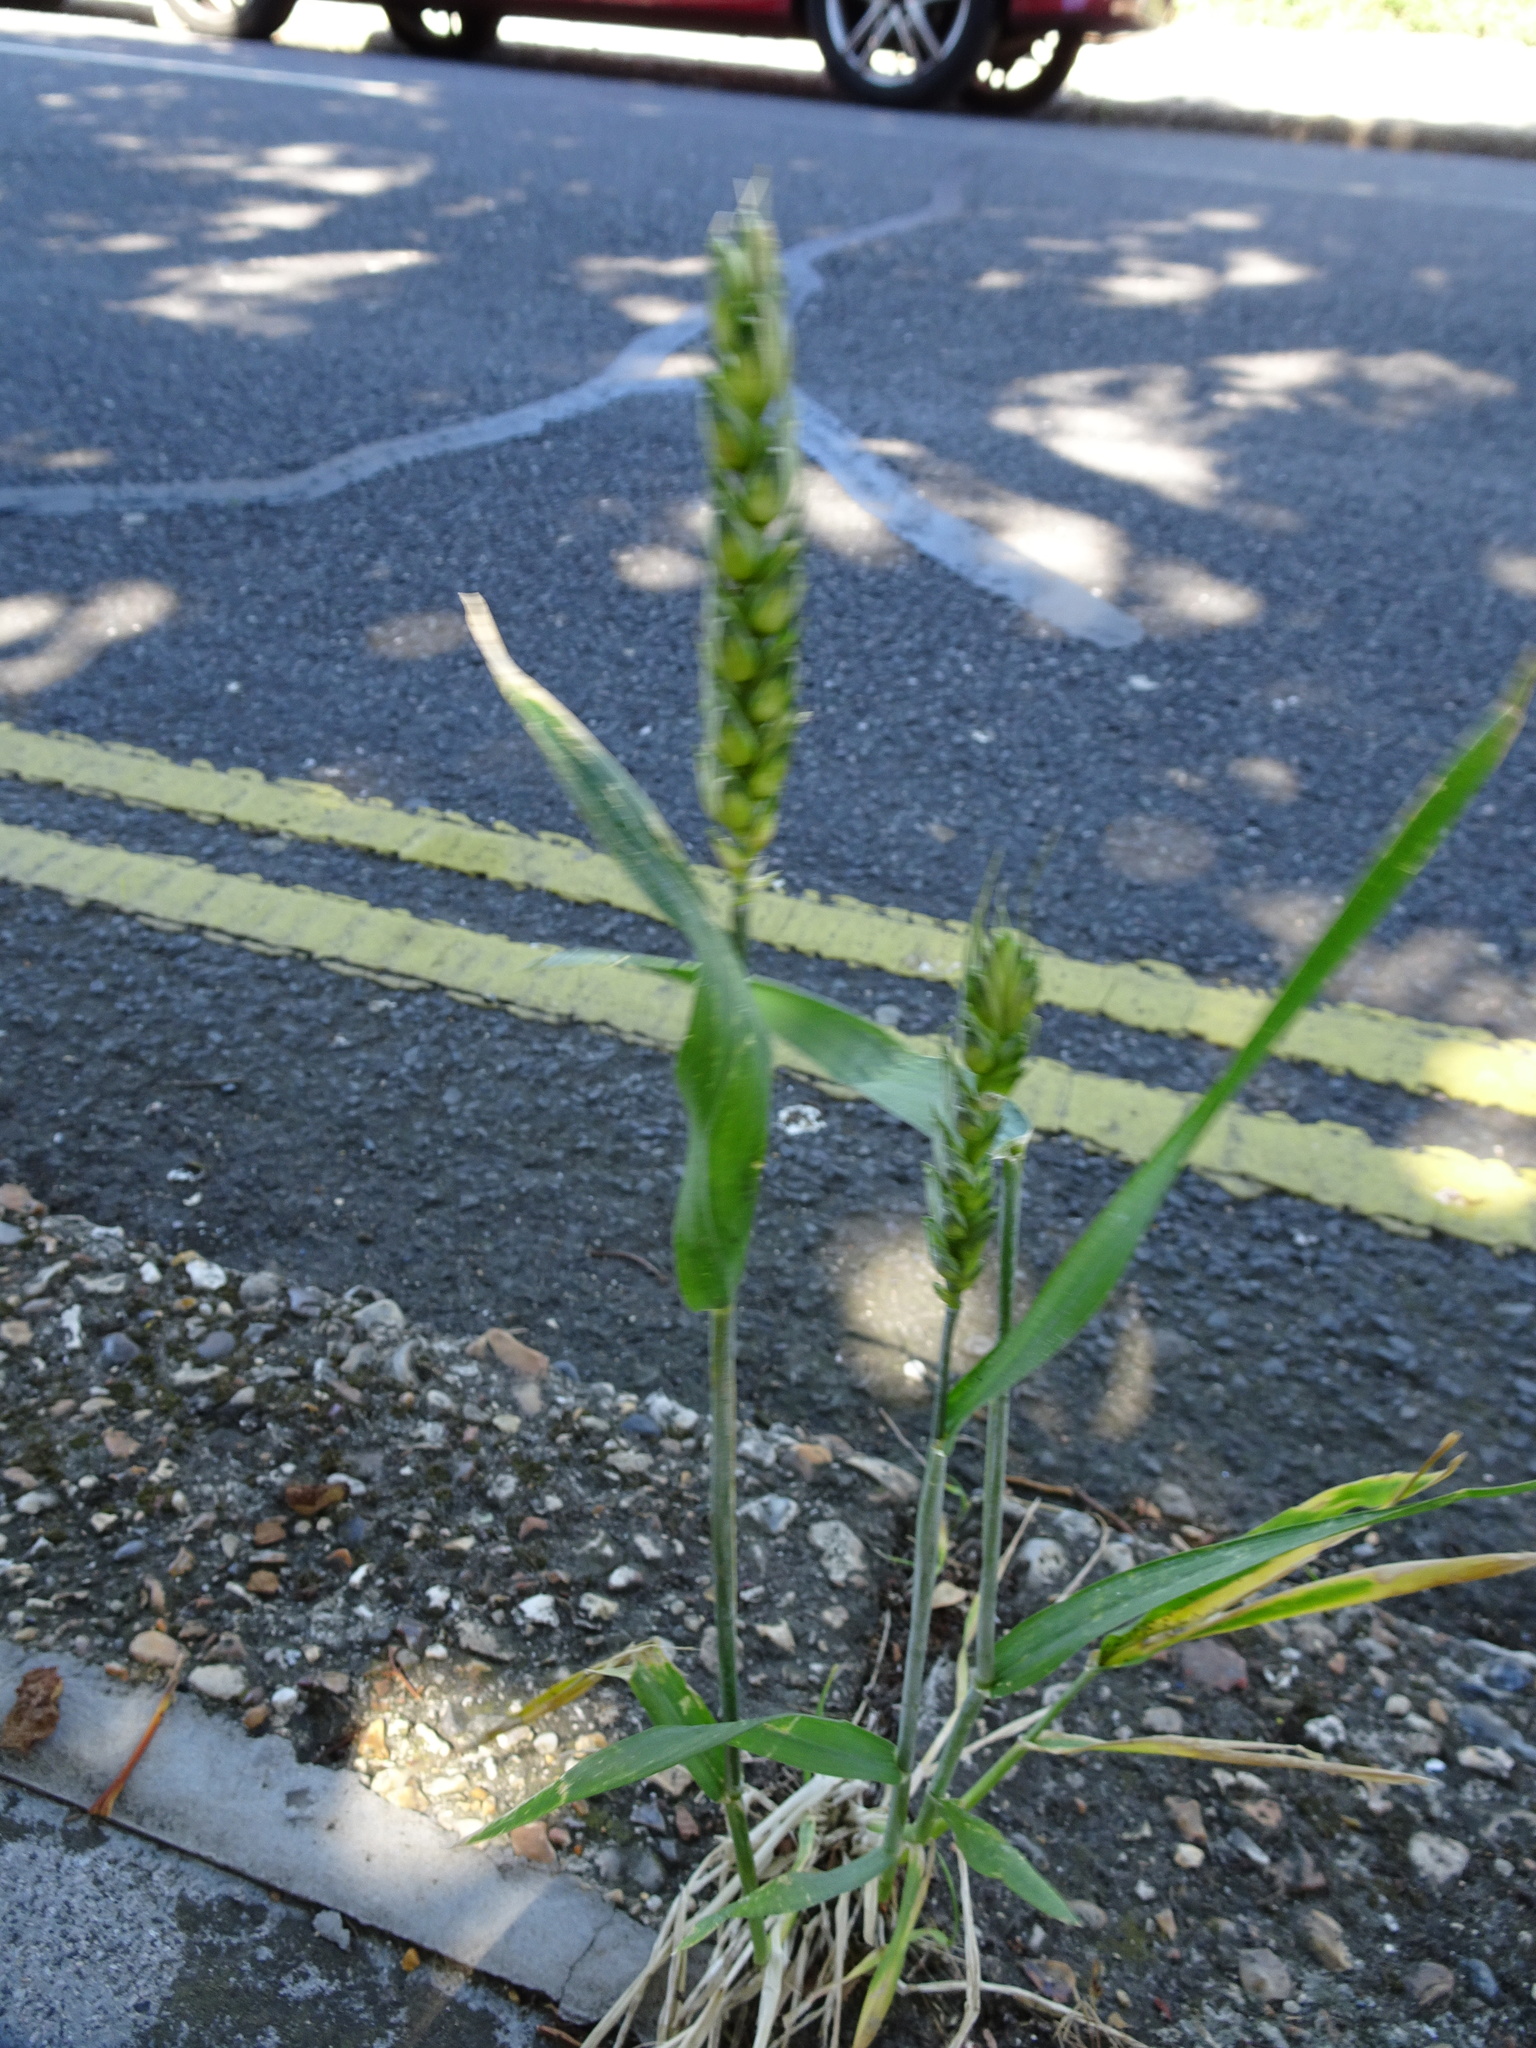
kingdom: Plantae
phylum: Tracheophyta
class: Liliopsida
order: Poales
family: Poaceae
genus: Triticum
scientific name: Triticum aestivum
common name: Common wheat
